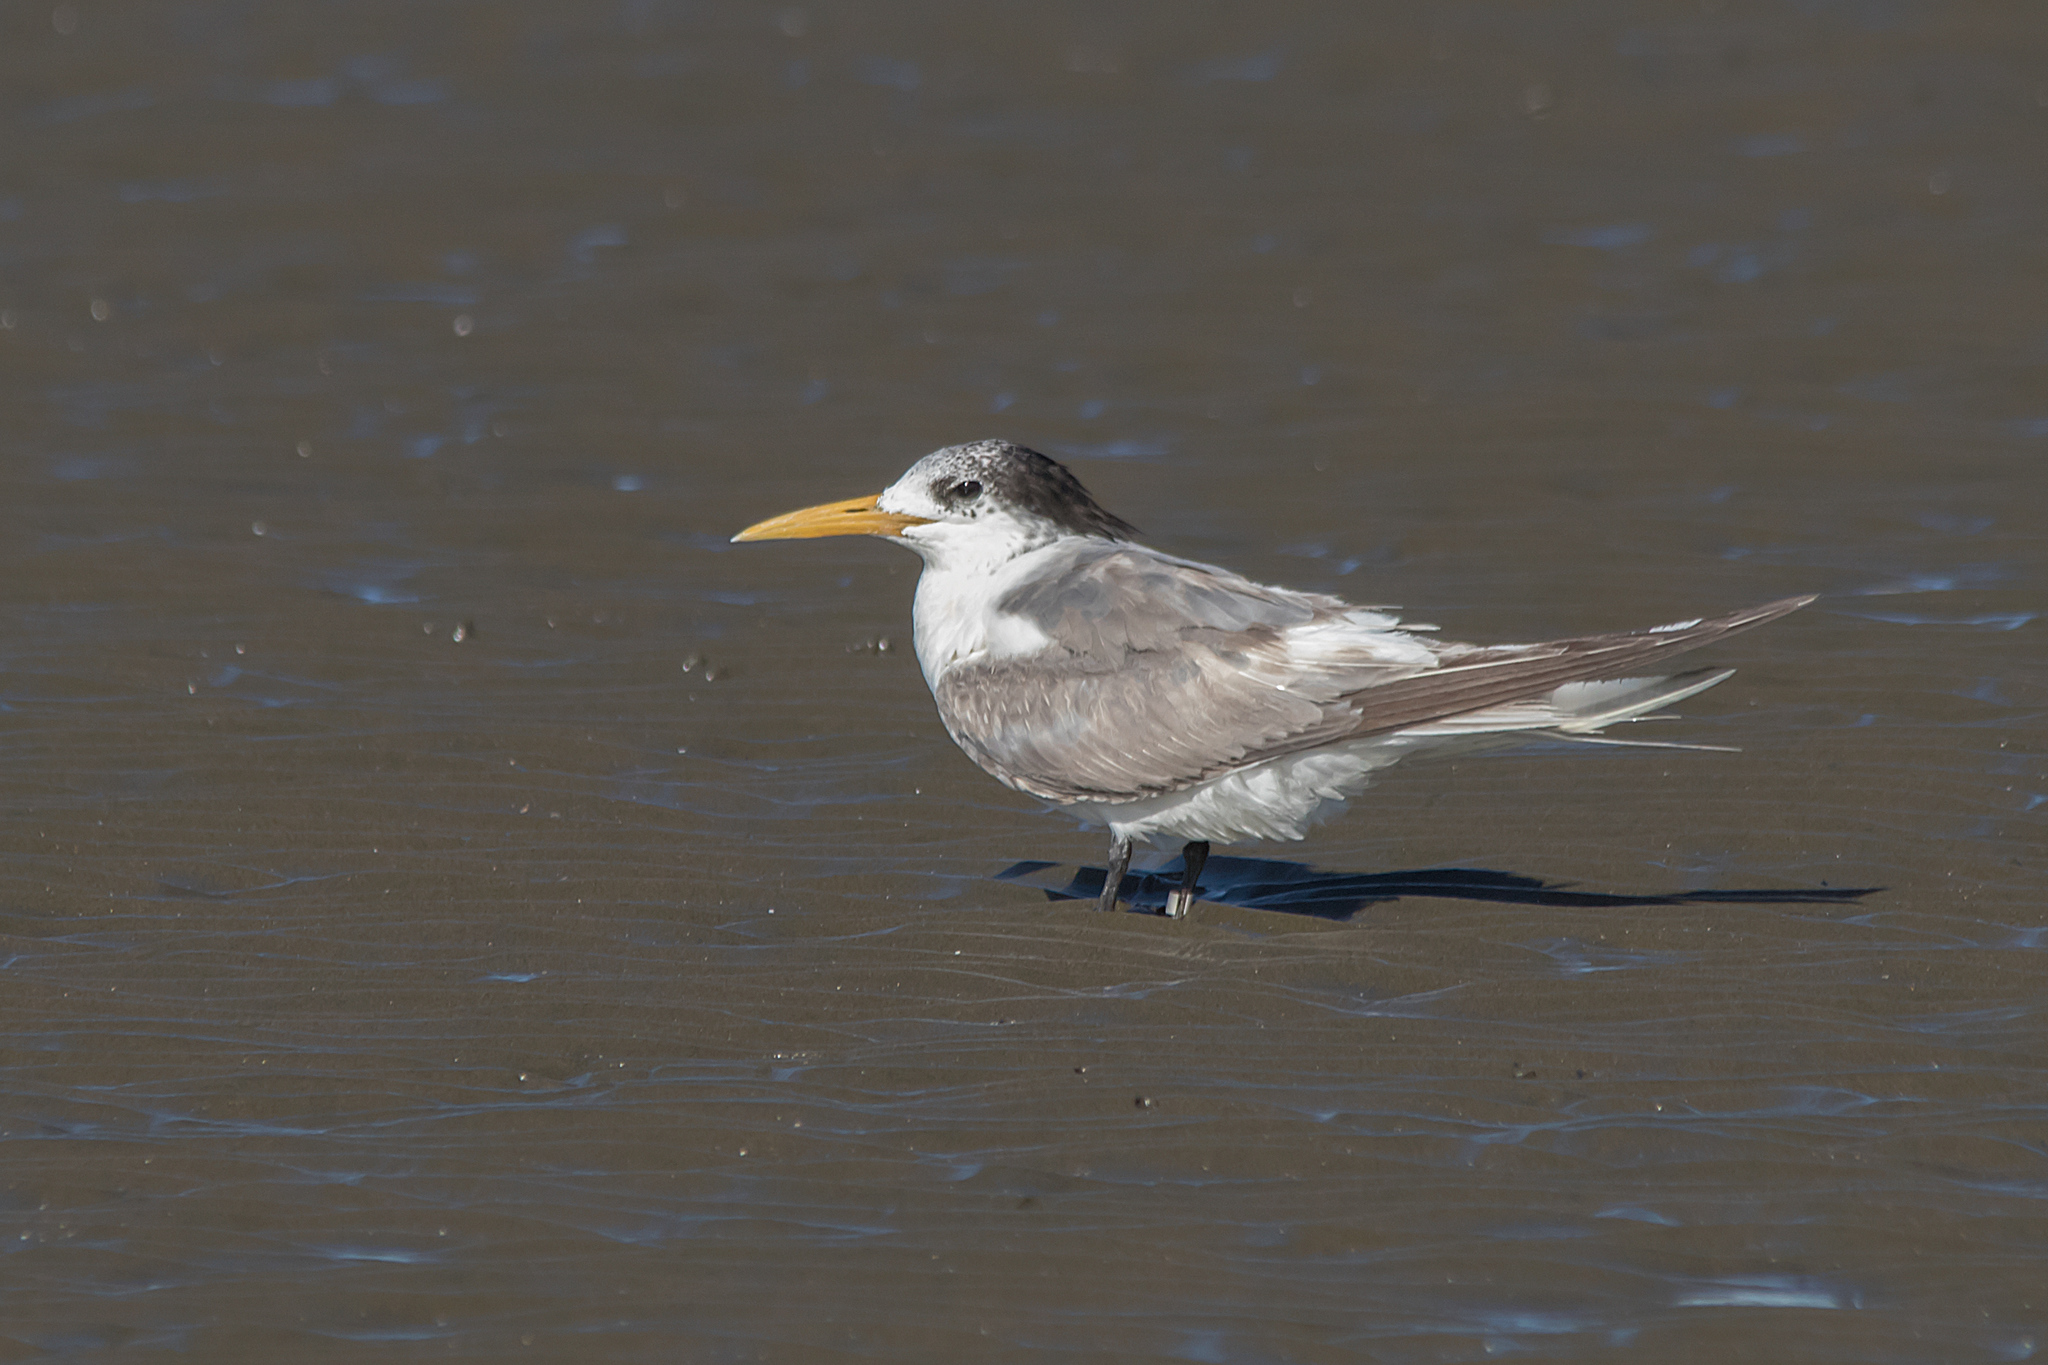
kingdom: Animalia
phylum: Chordata
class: Aves
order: Charadriiformes
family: Laridae
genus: Thalasseus
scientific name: Thalasseus bergii
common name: Greater crested tern
